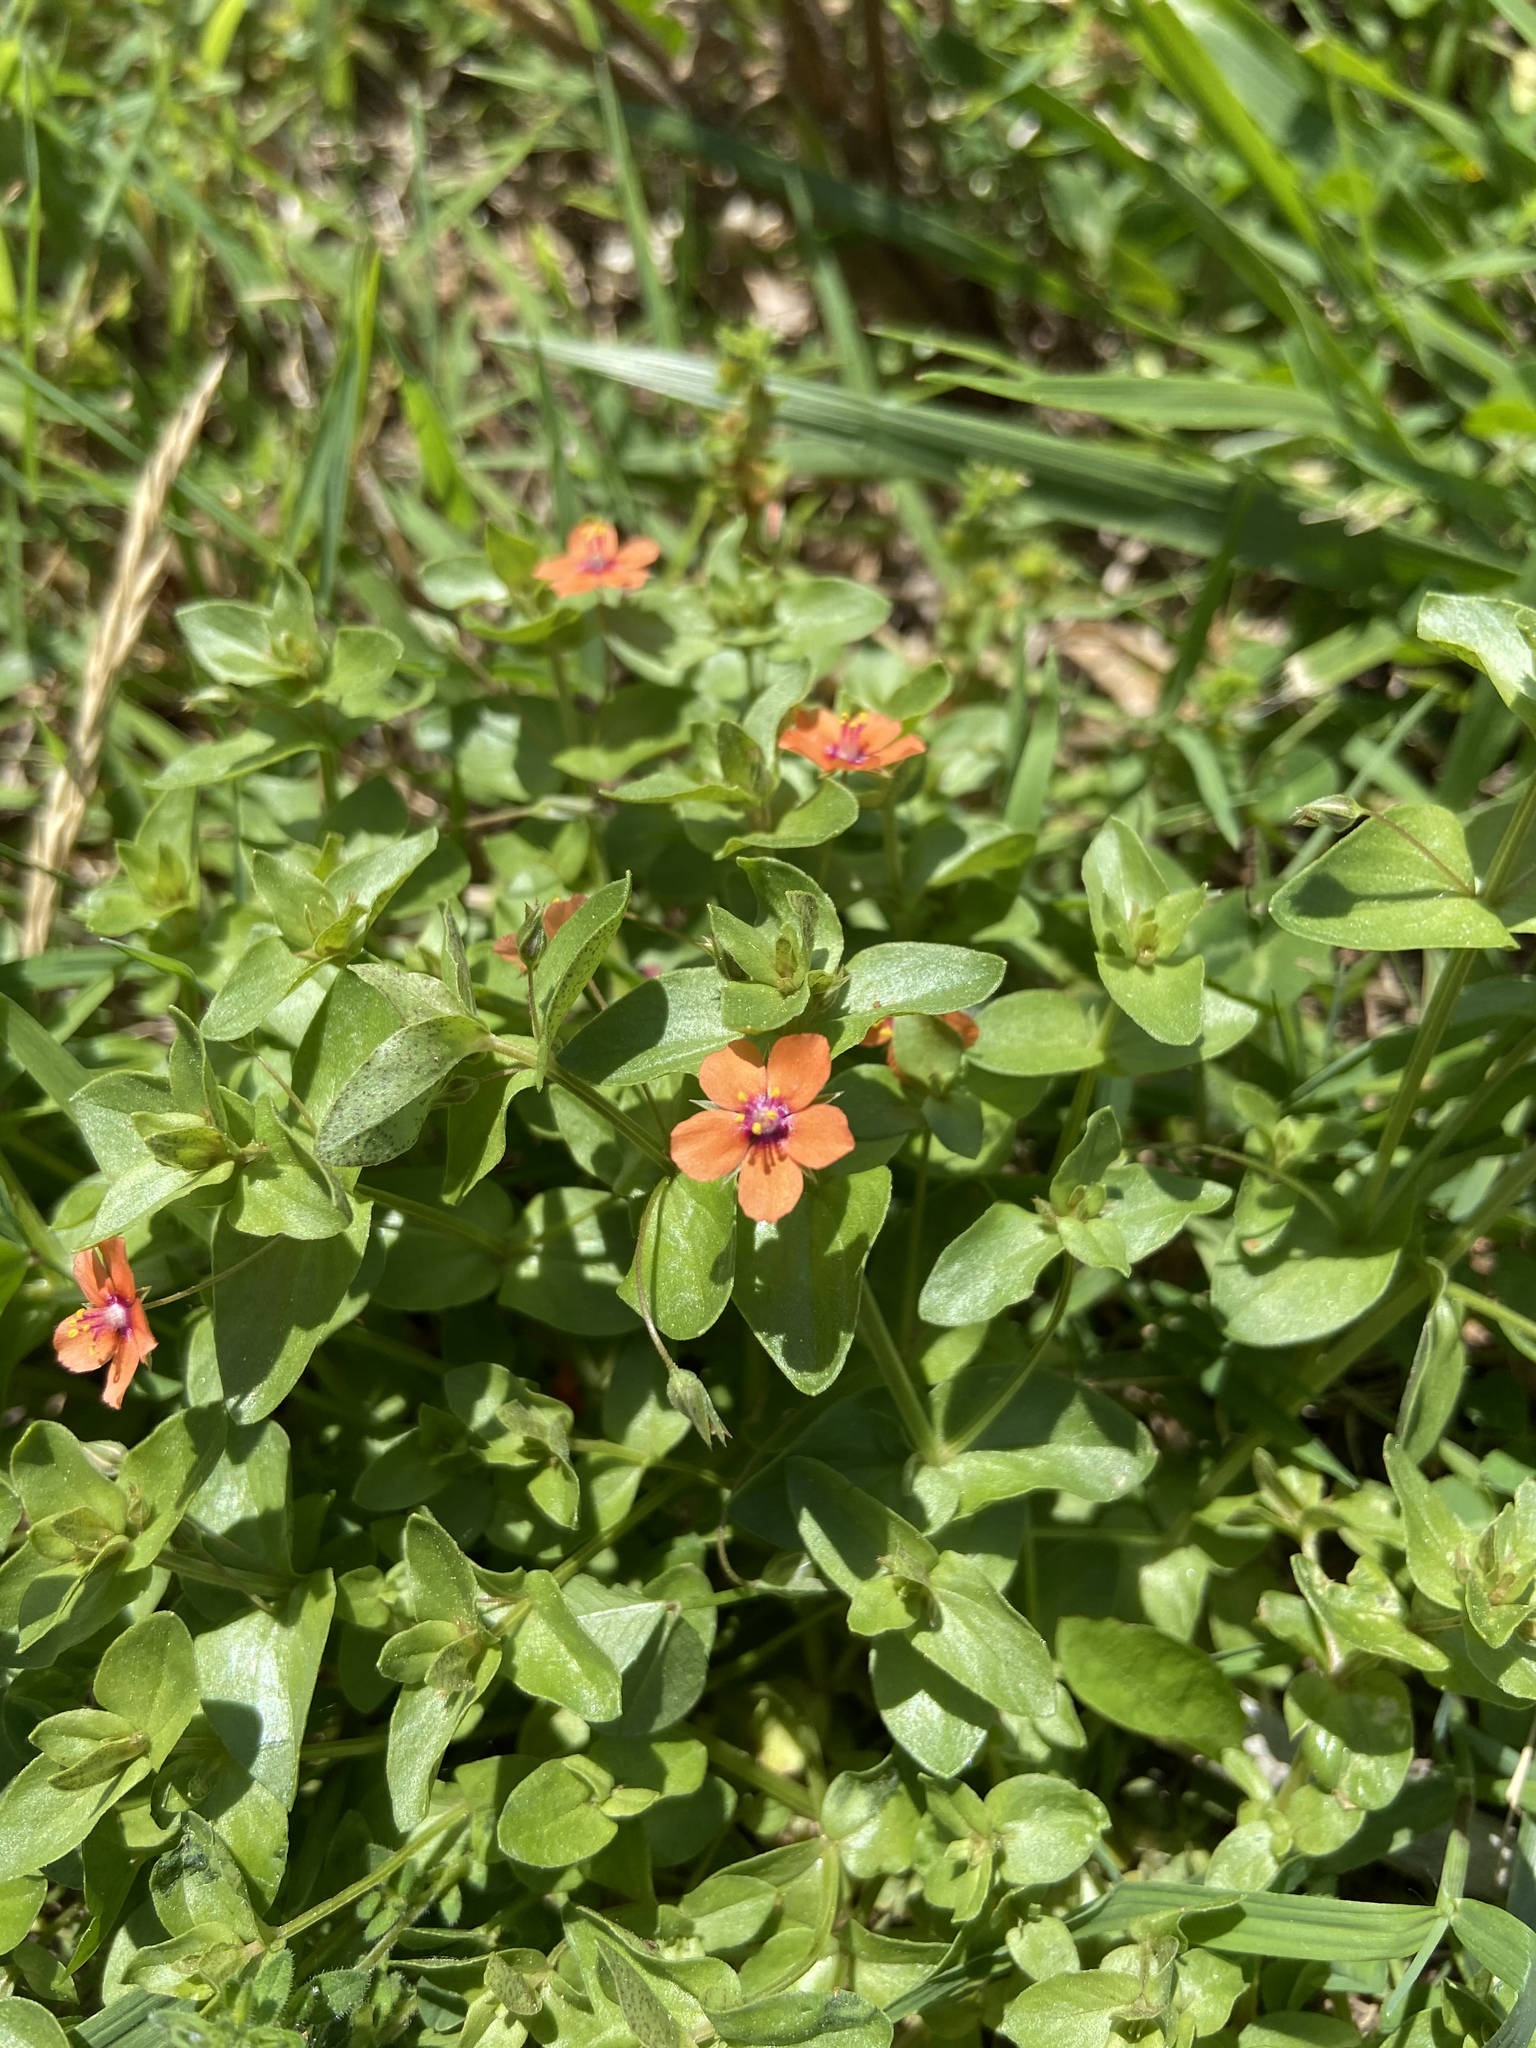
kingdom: Plantae
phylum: Tracheophyta
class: Magnoliopsida
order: Ericales
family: Primulaceae
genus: Lysimachia
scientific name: Lysimachia arvensis
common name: Scarlet pimpernel
